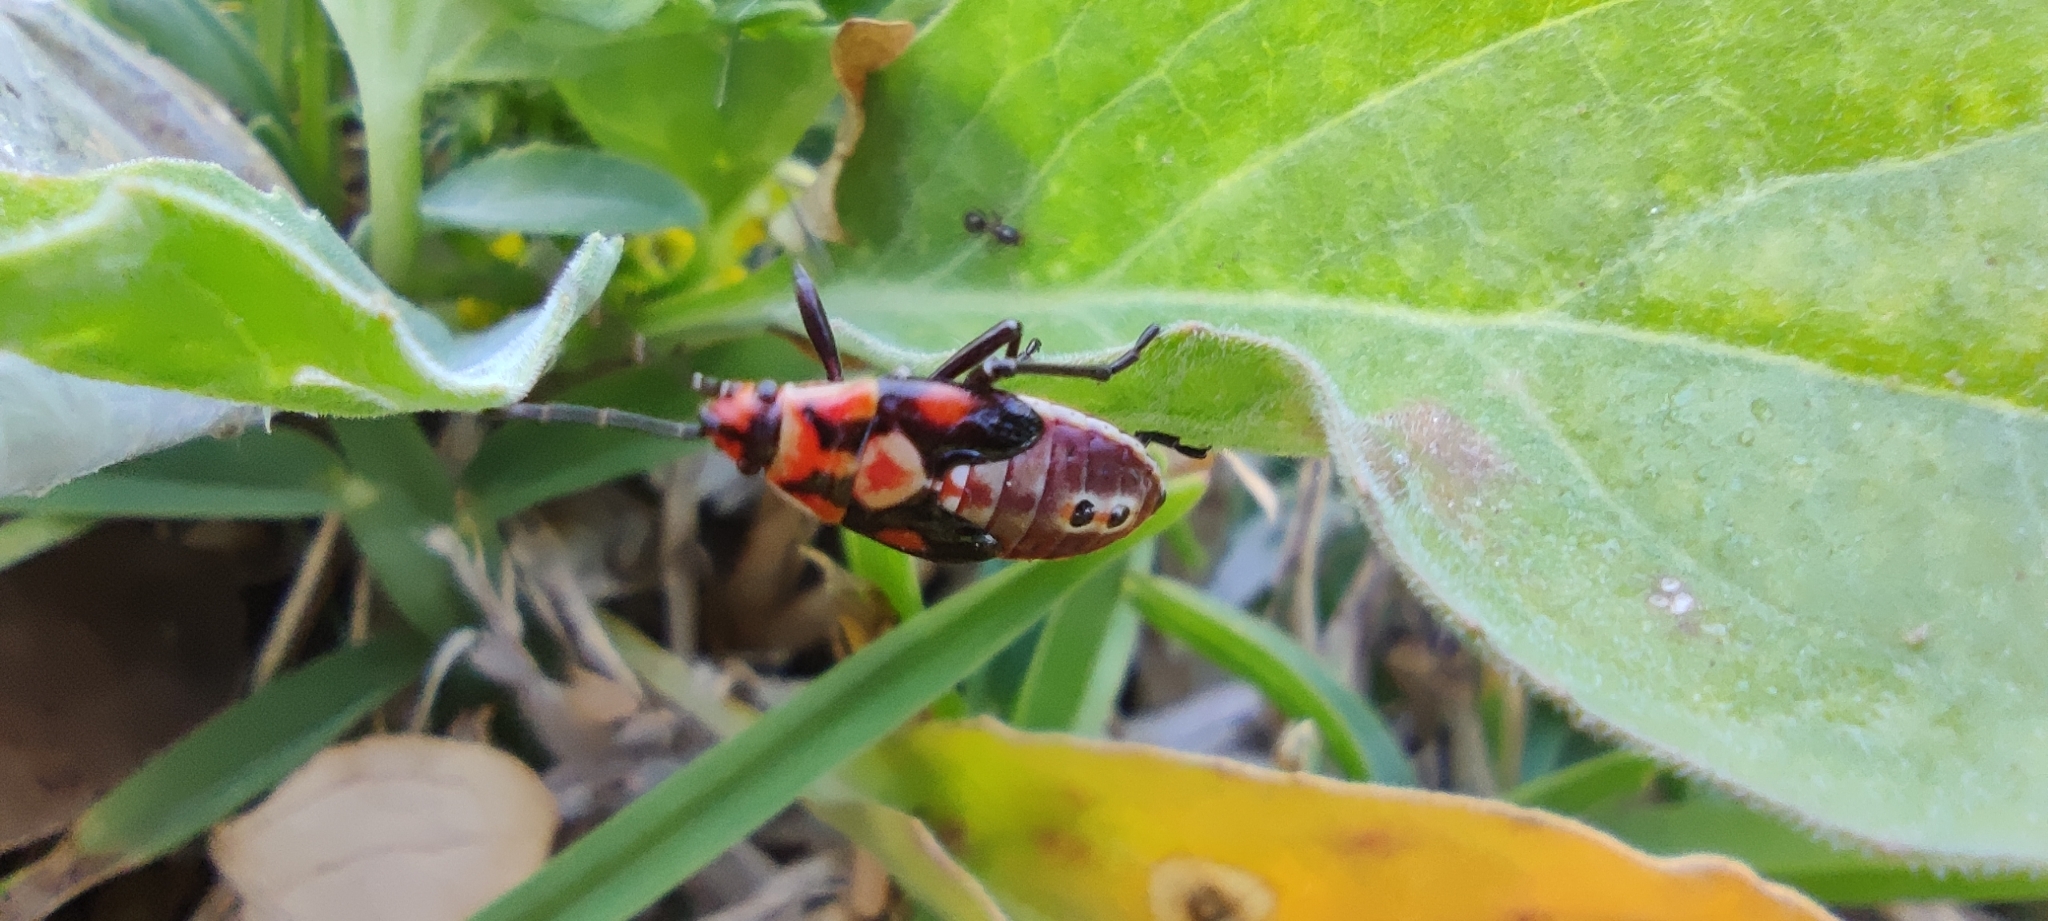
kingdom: Animalia
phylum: Arthropoda
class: Insecta
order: Hemiptera
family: Lygaeidae
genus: Spilostethus
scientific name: Spilostethus pandurus
